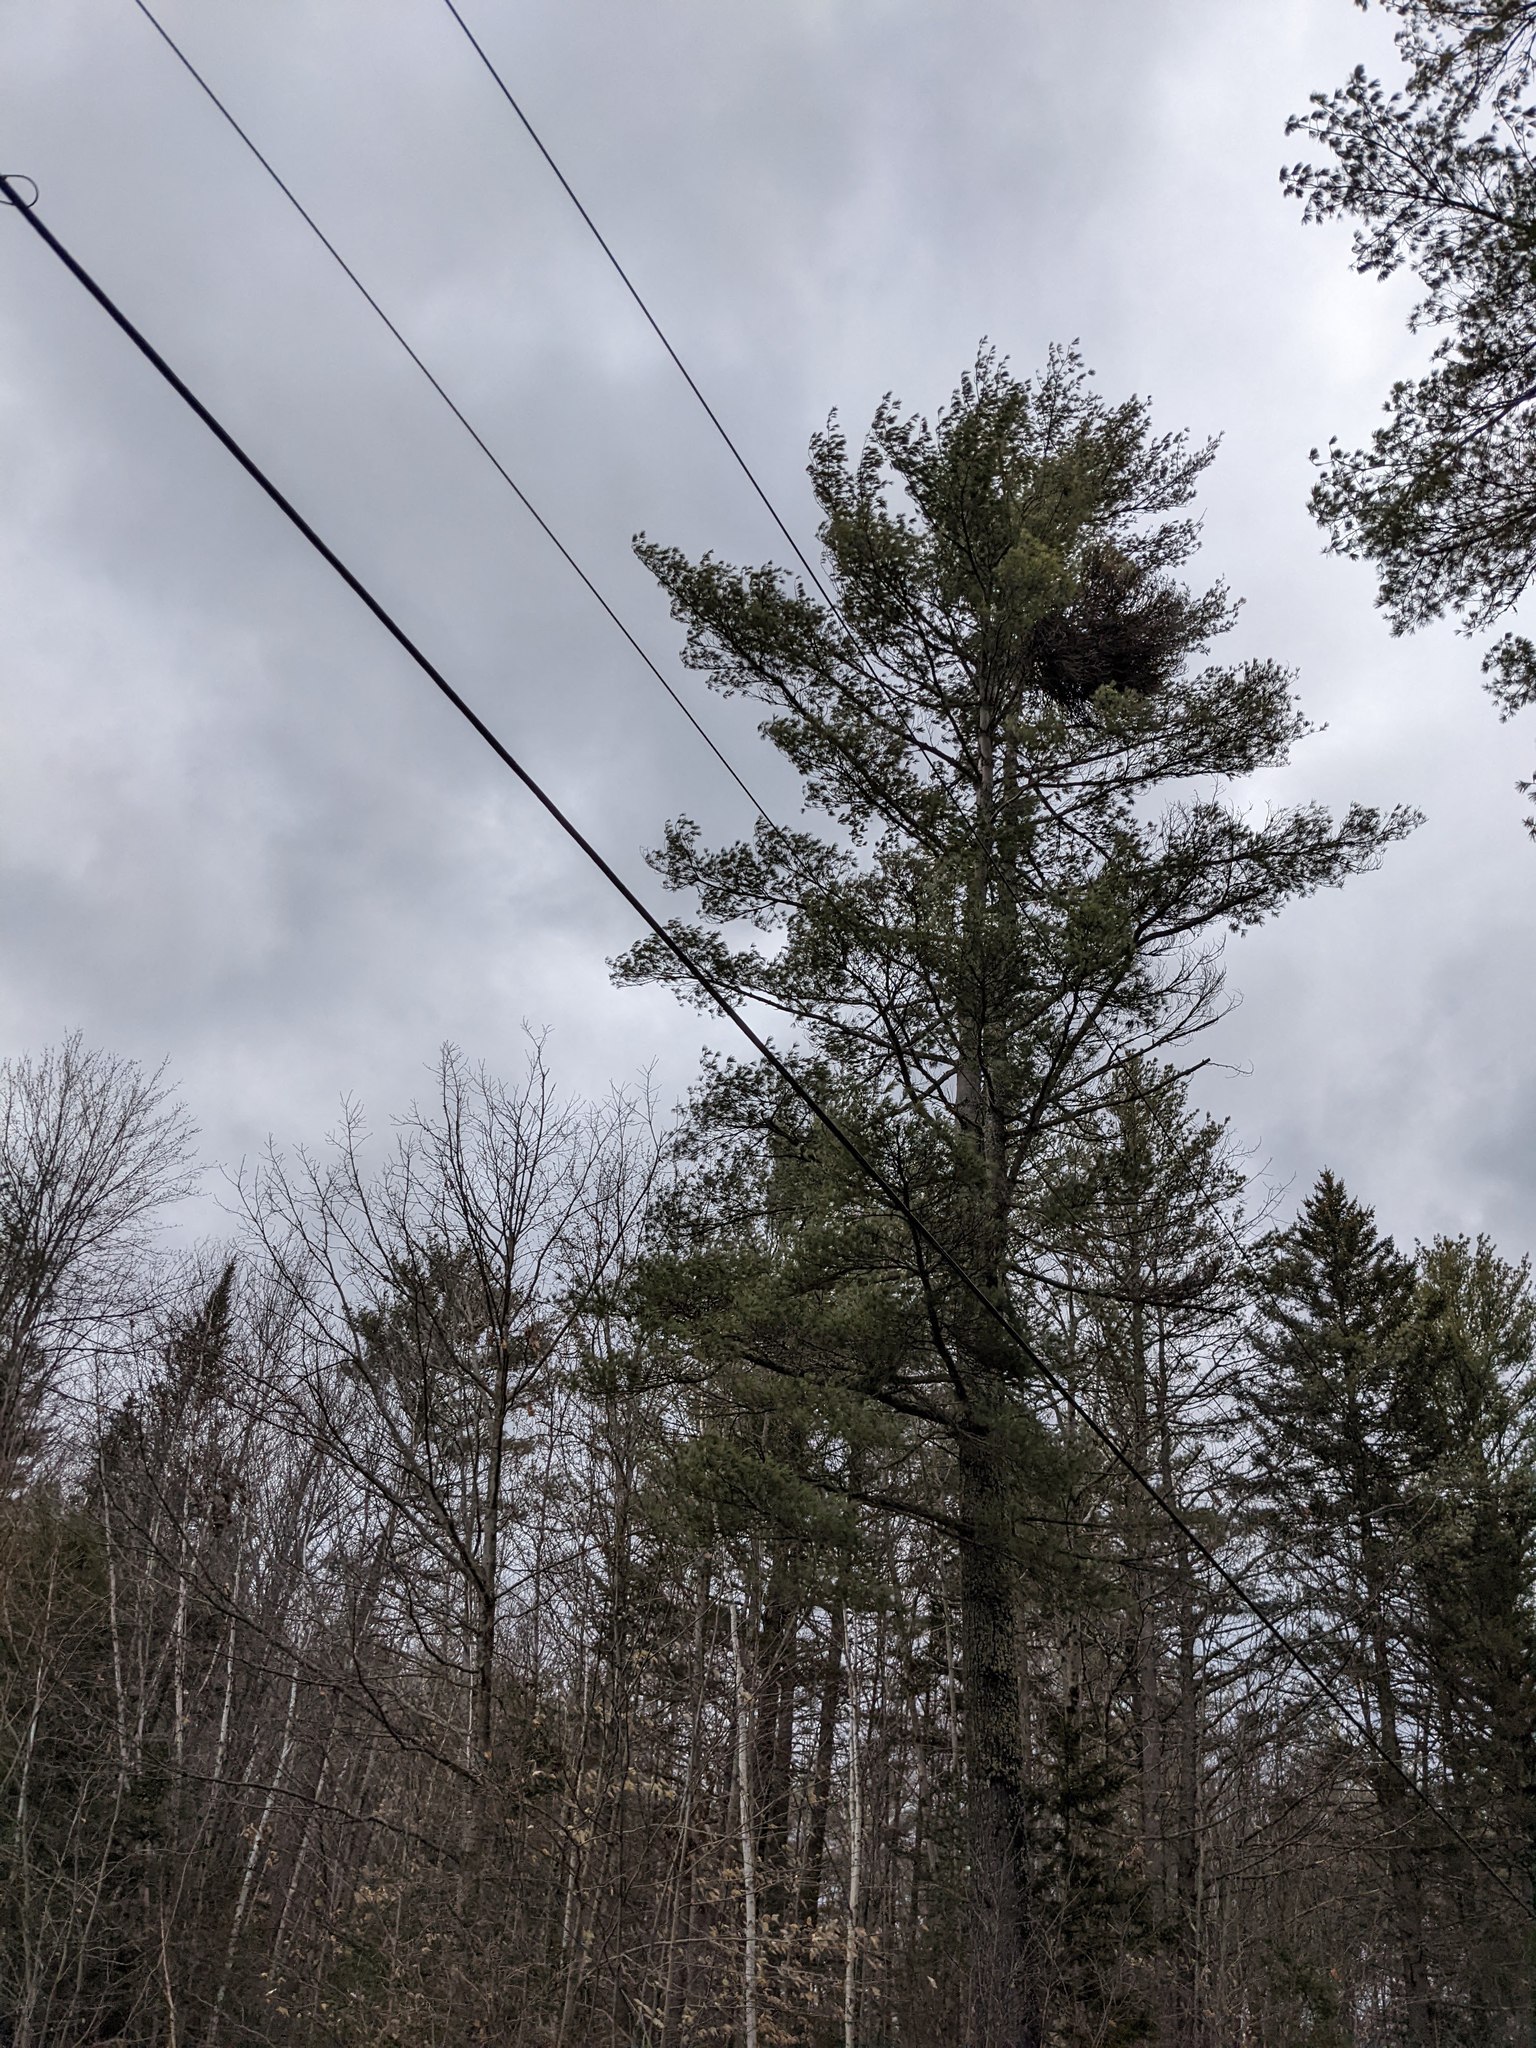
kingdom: Plantae
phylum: Tracheophyta
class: Pinopsida
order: Pinales
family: Pinaceae
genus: Pinus
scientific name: Pinus strobus
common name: Weymouth pine
